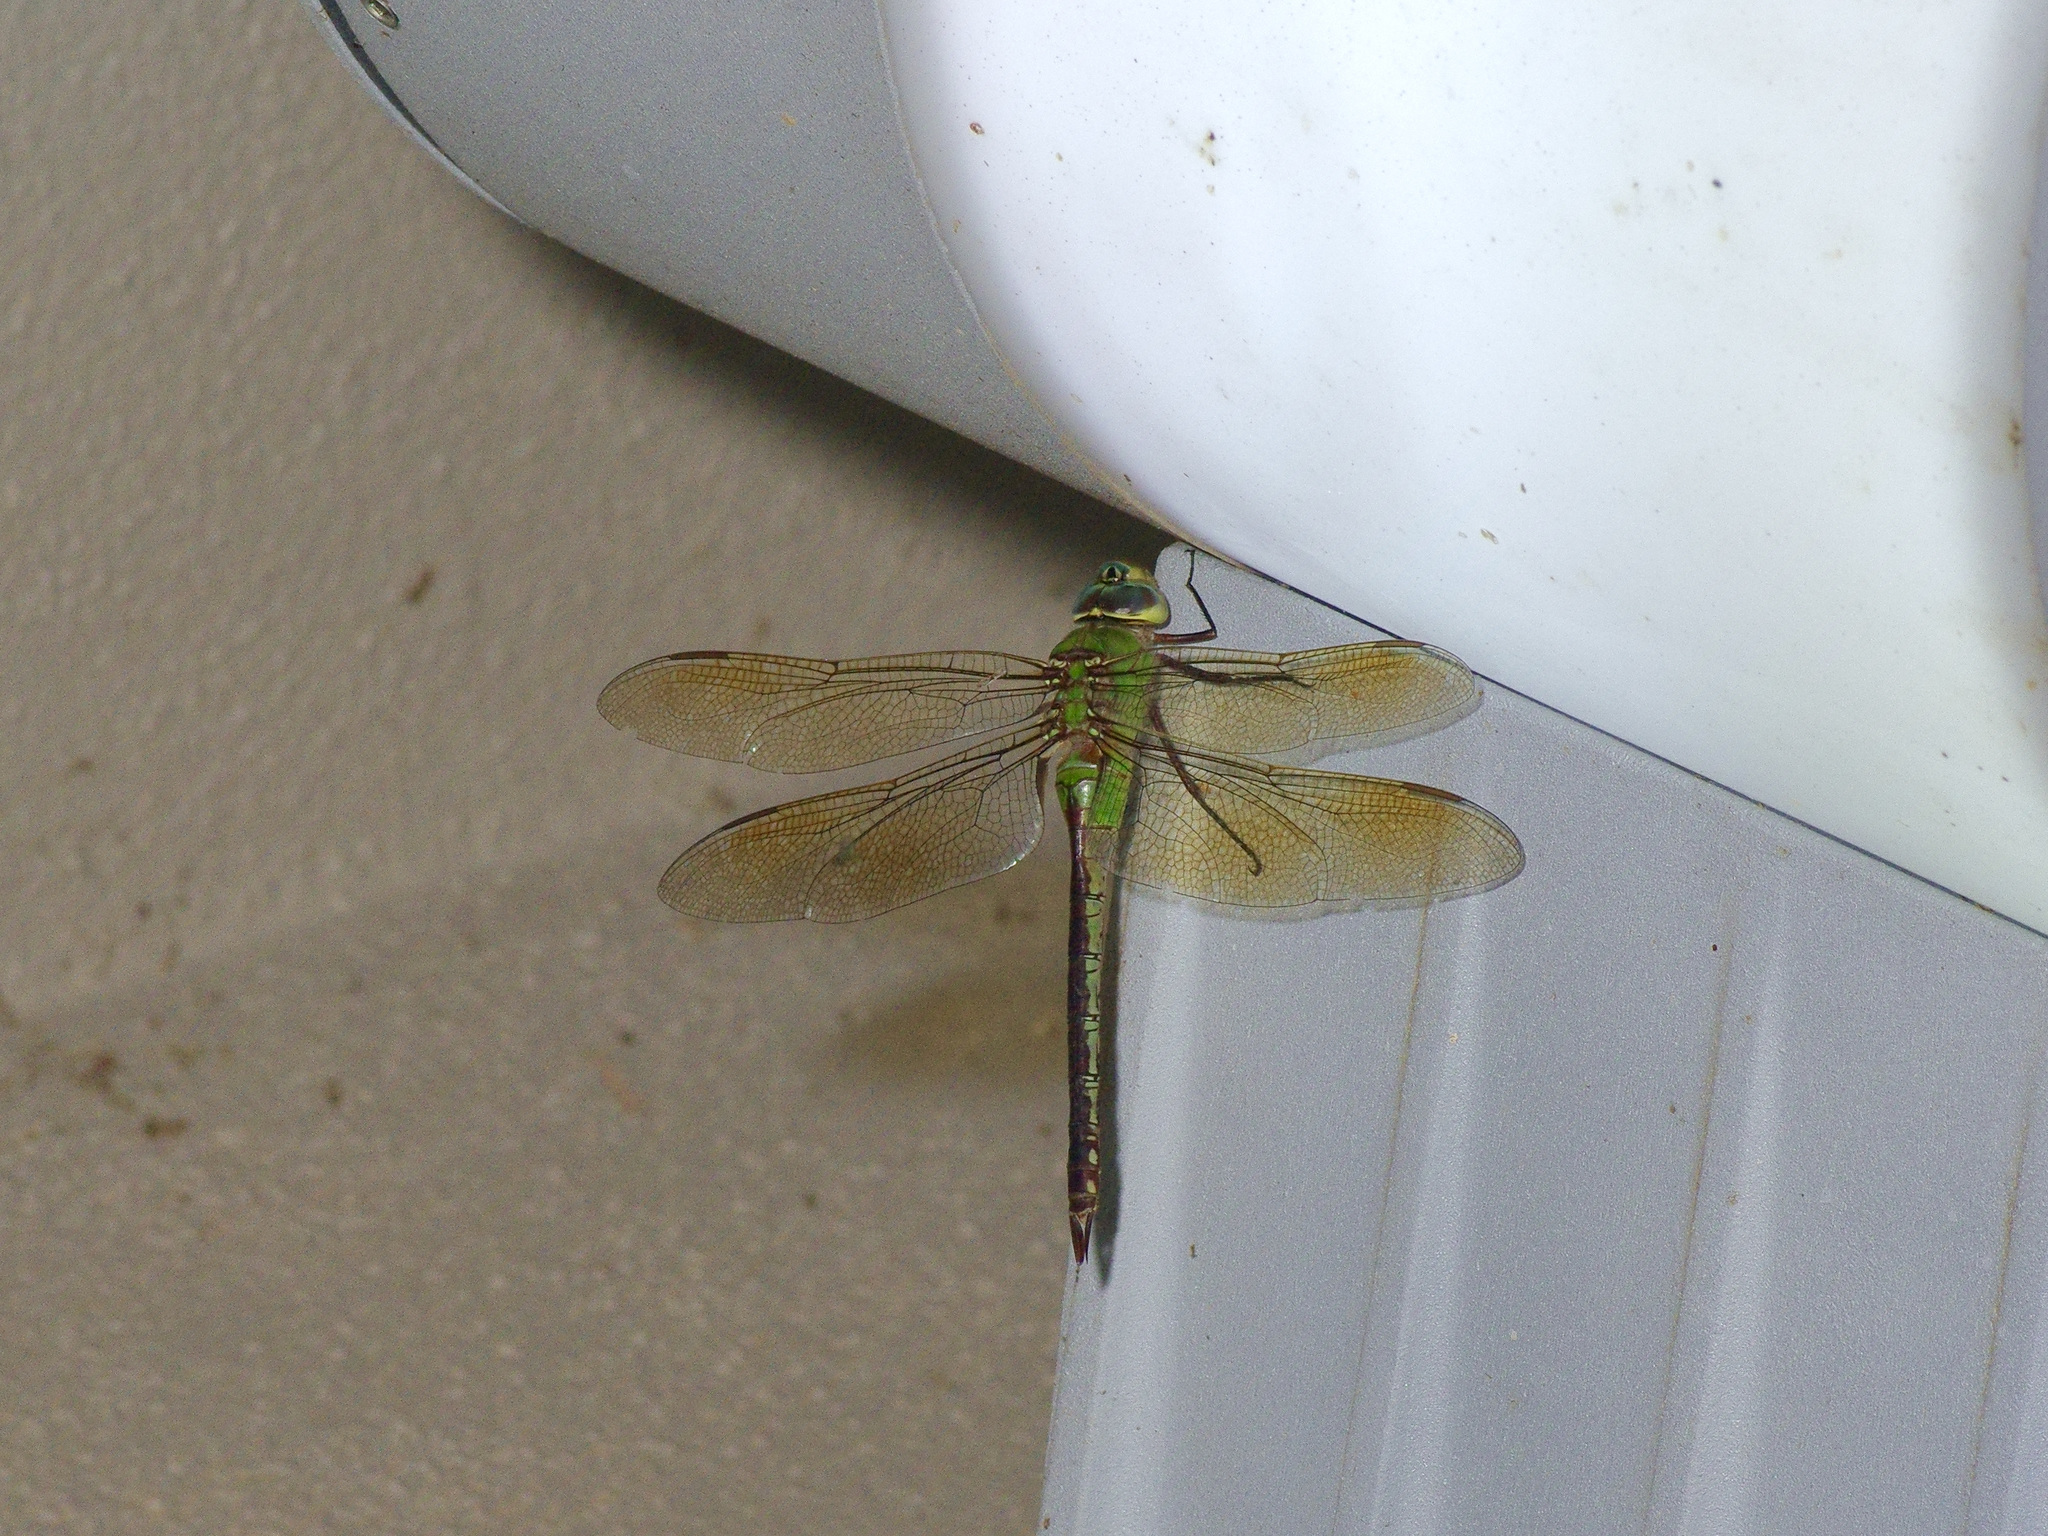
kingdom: Animalia
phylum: Arthropoda
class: Insecta
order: Odonata
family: Aeshnidae
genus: Anax
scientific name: Anax junius
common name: Common green darner
